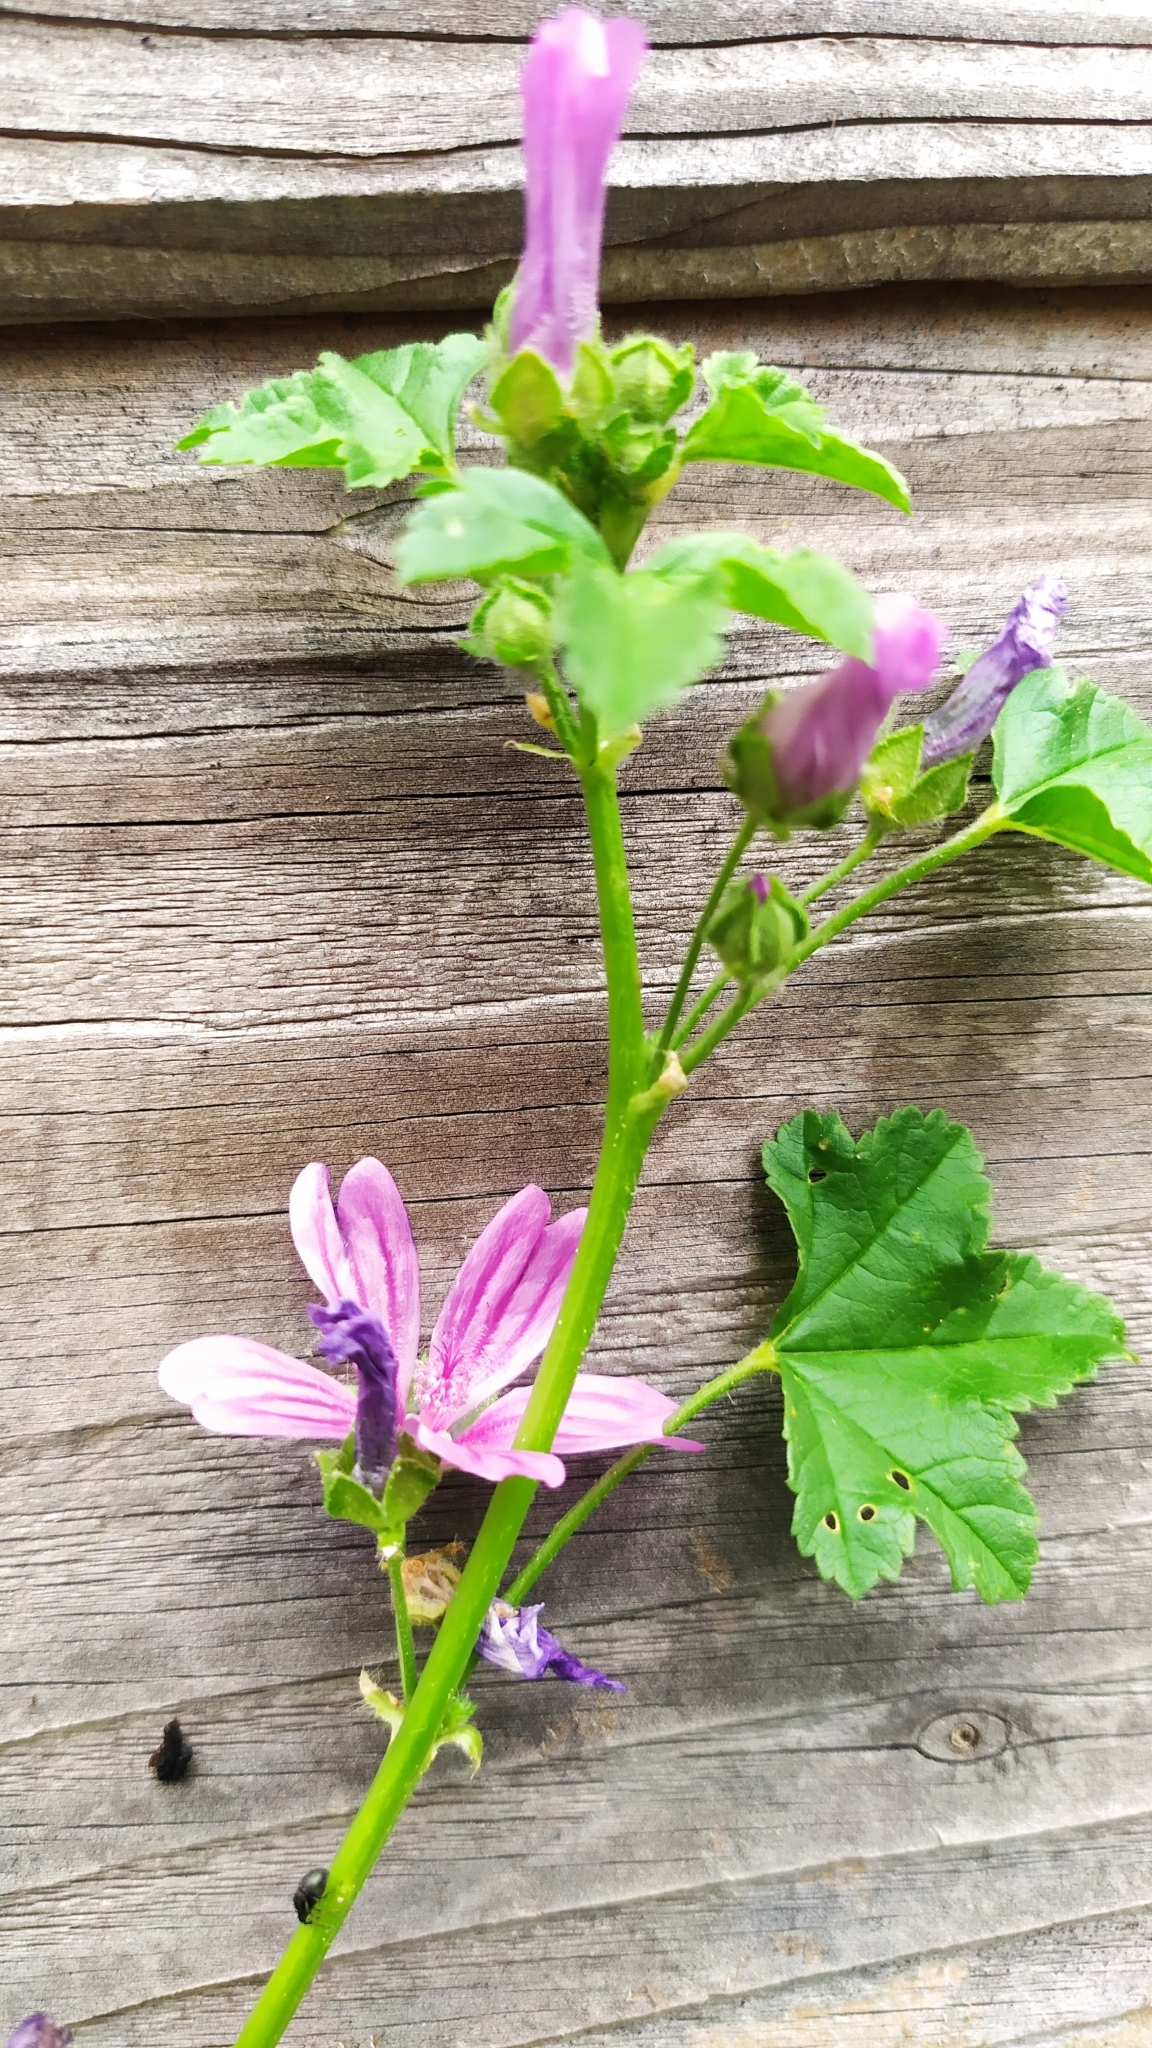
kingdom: Plantae
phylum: Tracheophyta
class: Magnoliopsida
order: Malvales
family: Malvaceae
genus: Malva
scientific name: Malva sylvestris
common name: Common mallow
